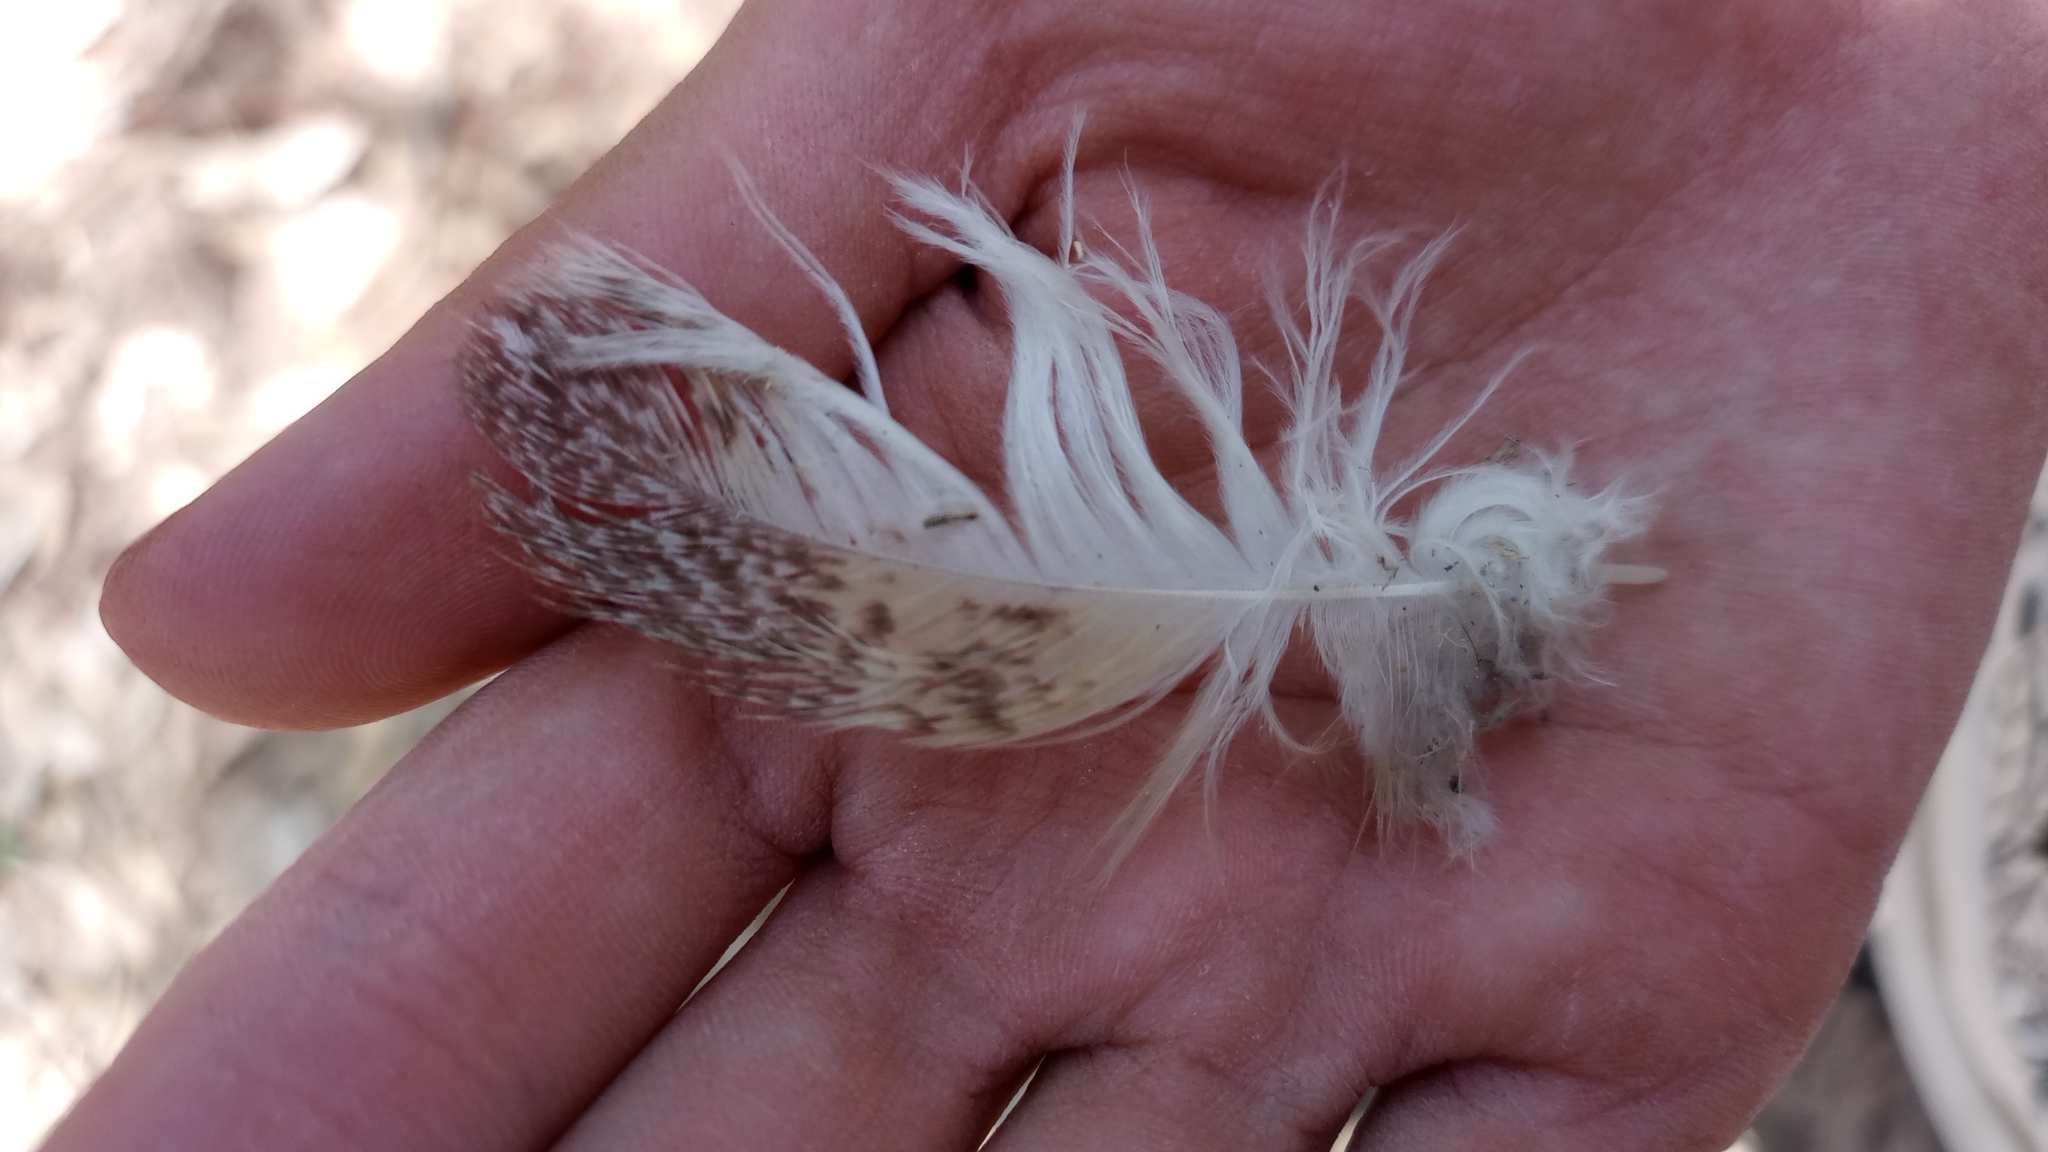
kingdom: Animalia
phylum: Chordata
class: Aves
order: Strigiformes
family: Tytonidae
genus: Tyto
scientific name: Tyto alba
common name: Barn owl
